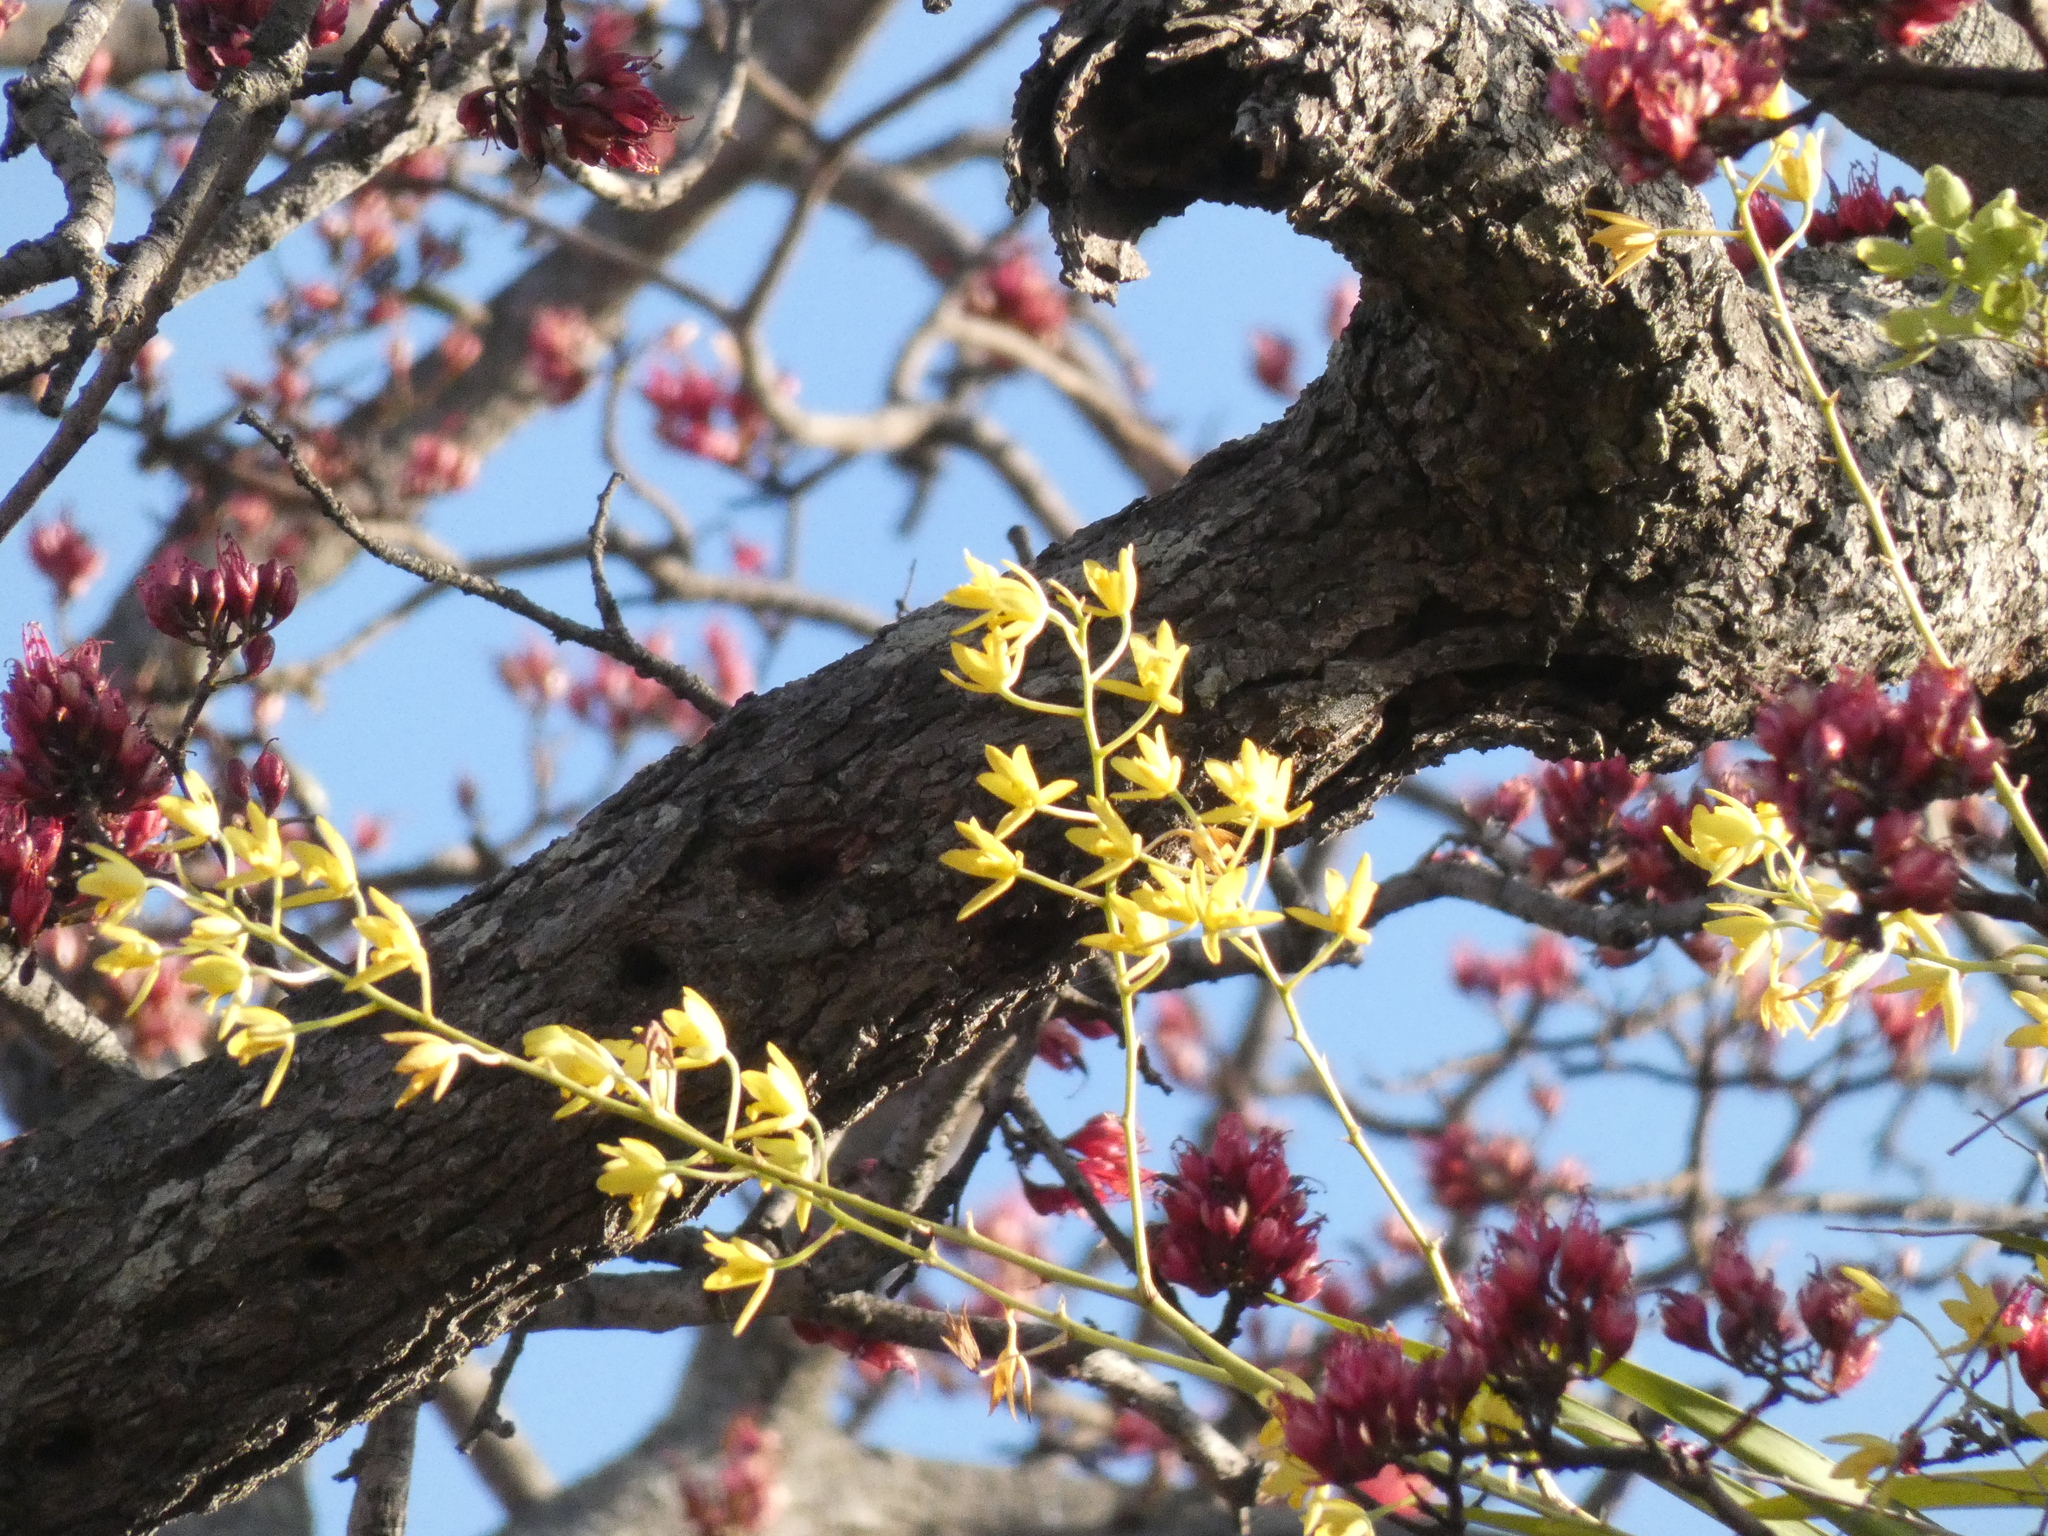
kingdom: Plantae
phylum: Tracheophyta
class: Liliopsida
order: Asparagales
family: Orchidaceae
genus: Ansellia
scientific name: Ansellia africana
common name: African ansellia
